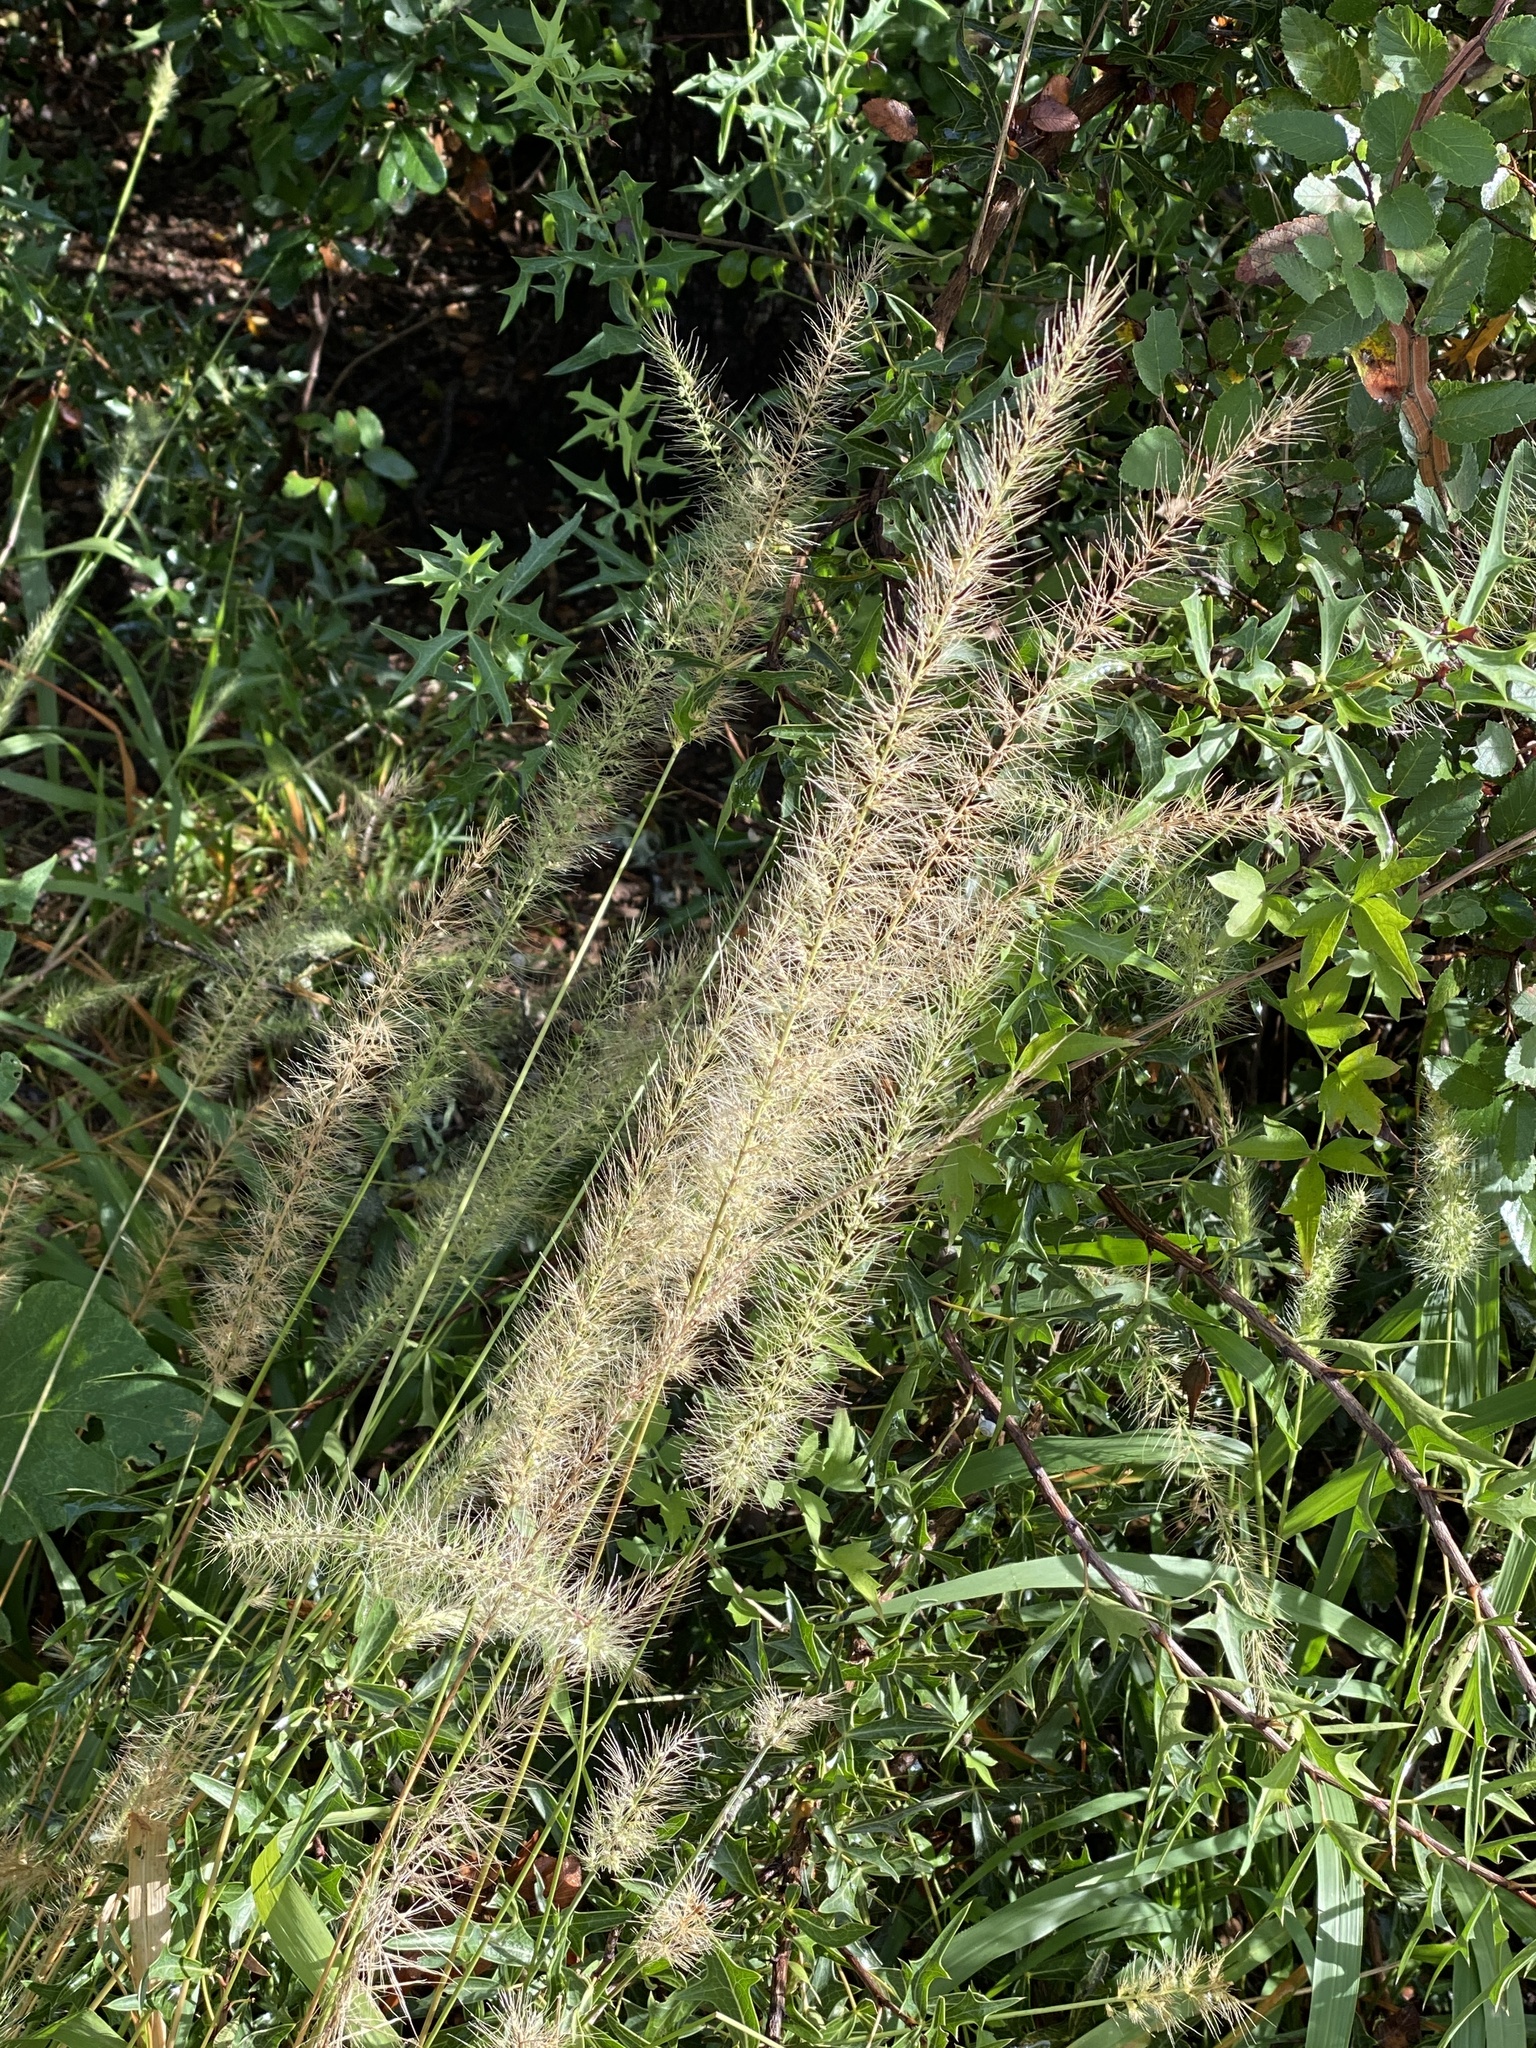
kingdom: Plantae
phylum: Tracheophyta
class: Liliopsida
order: Poales
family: Poaceae
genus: Setaria
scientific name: Setaria scheelei
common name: Southwestern bristle grass
